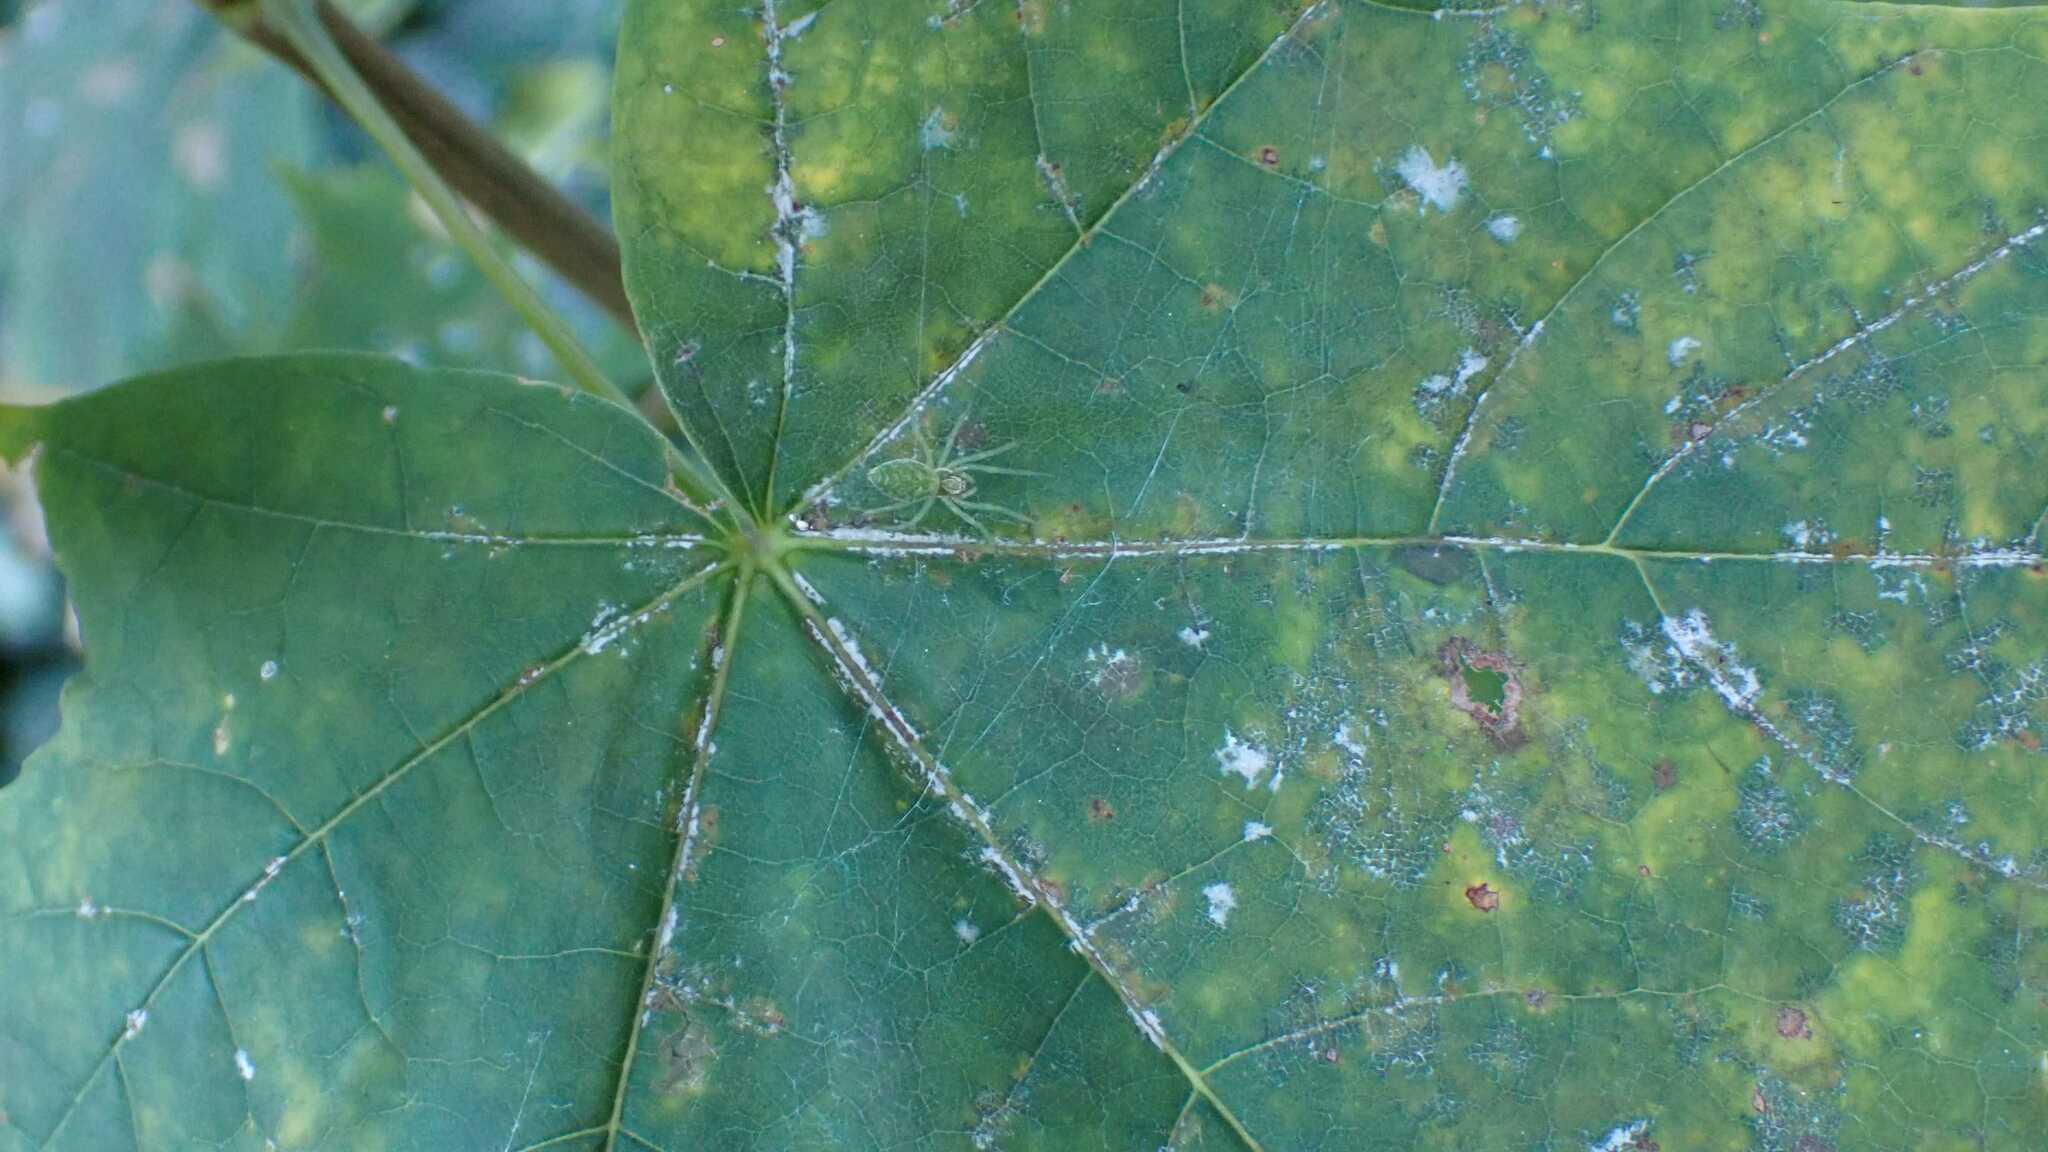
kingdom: Animalia
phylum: Arthropoda
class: Arachnida
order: Araneae
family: Dictynidae
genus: Nigma
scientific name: Nigma walckenaeri
